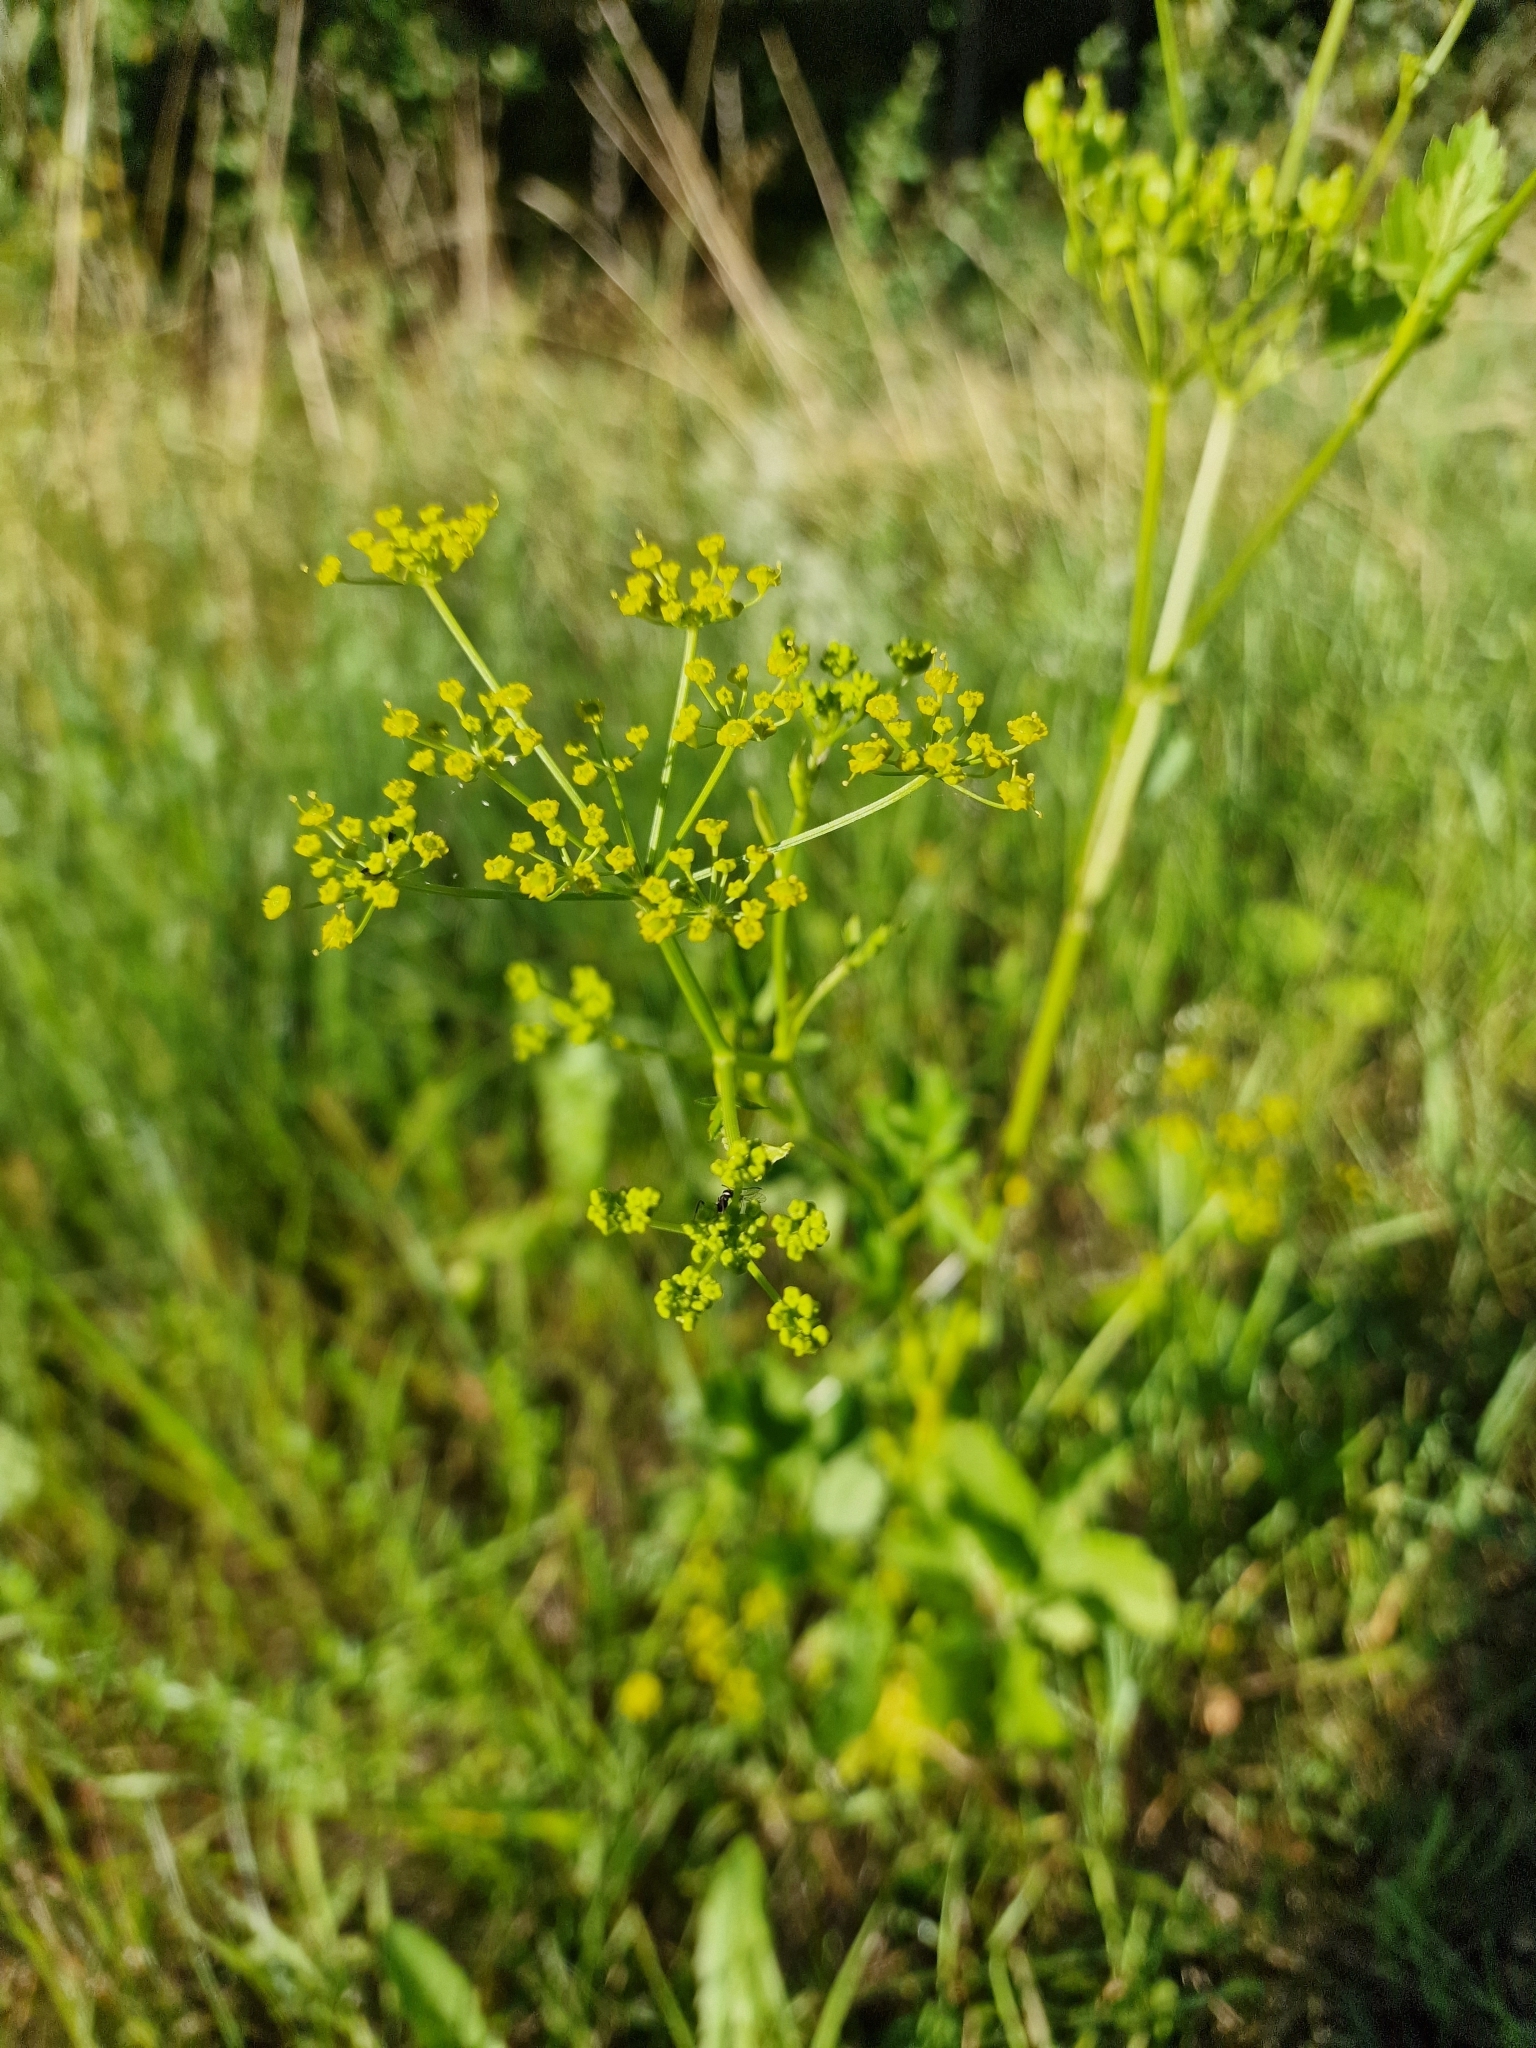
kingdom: Plantae
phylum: Tracheophyta
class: Magnoliopsida
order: Apiales
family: Apiaceae
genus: Pastinaca
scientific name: Pastinaca sativa
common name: Wild parsnip
